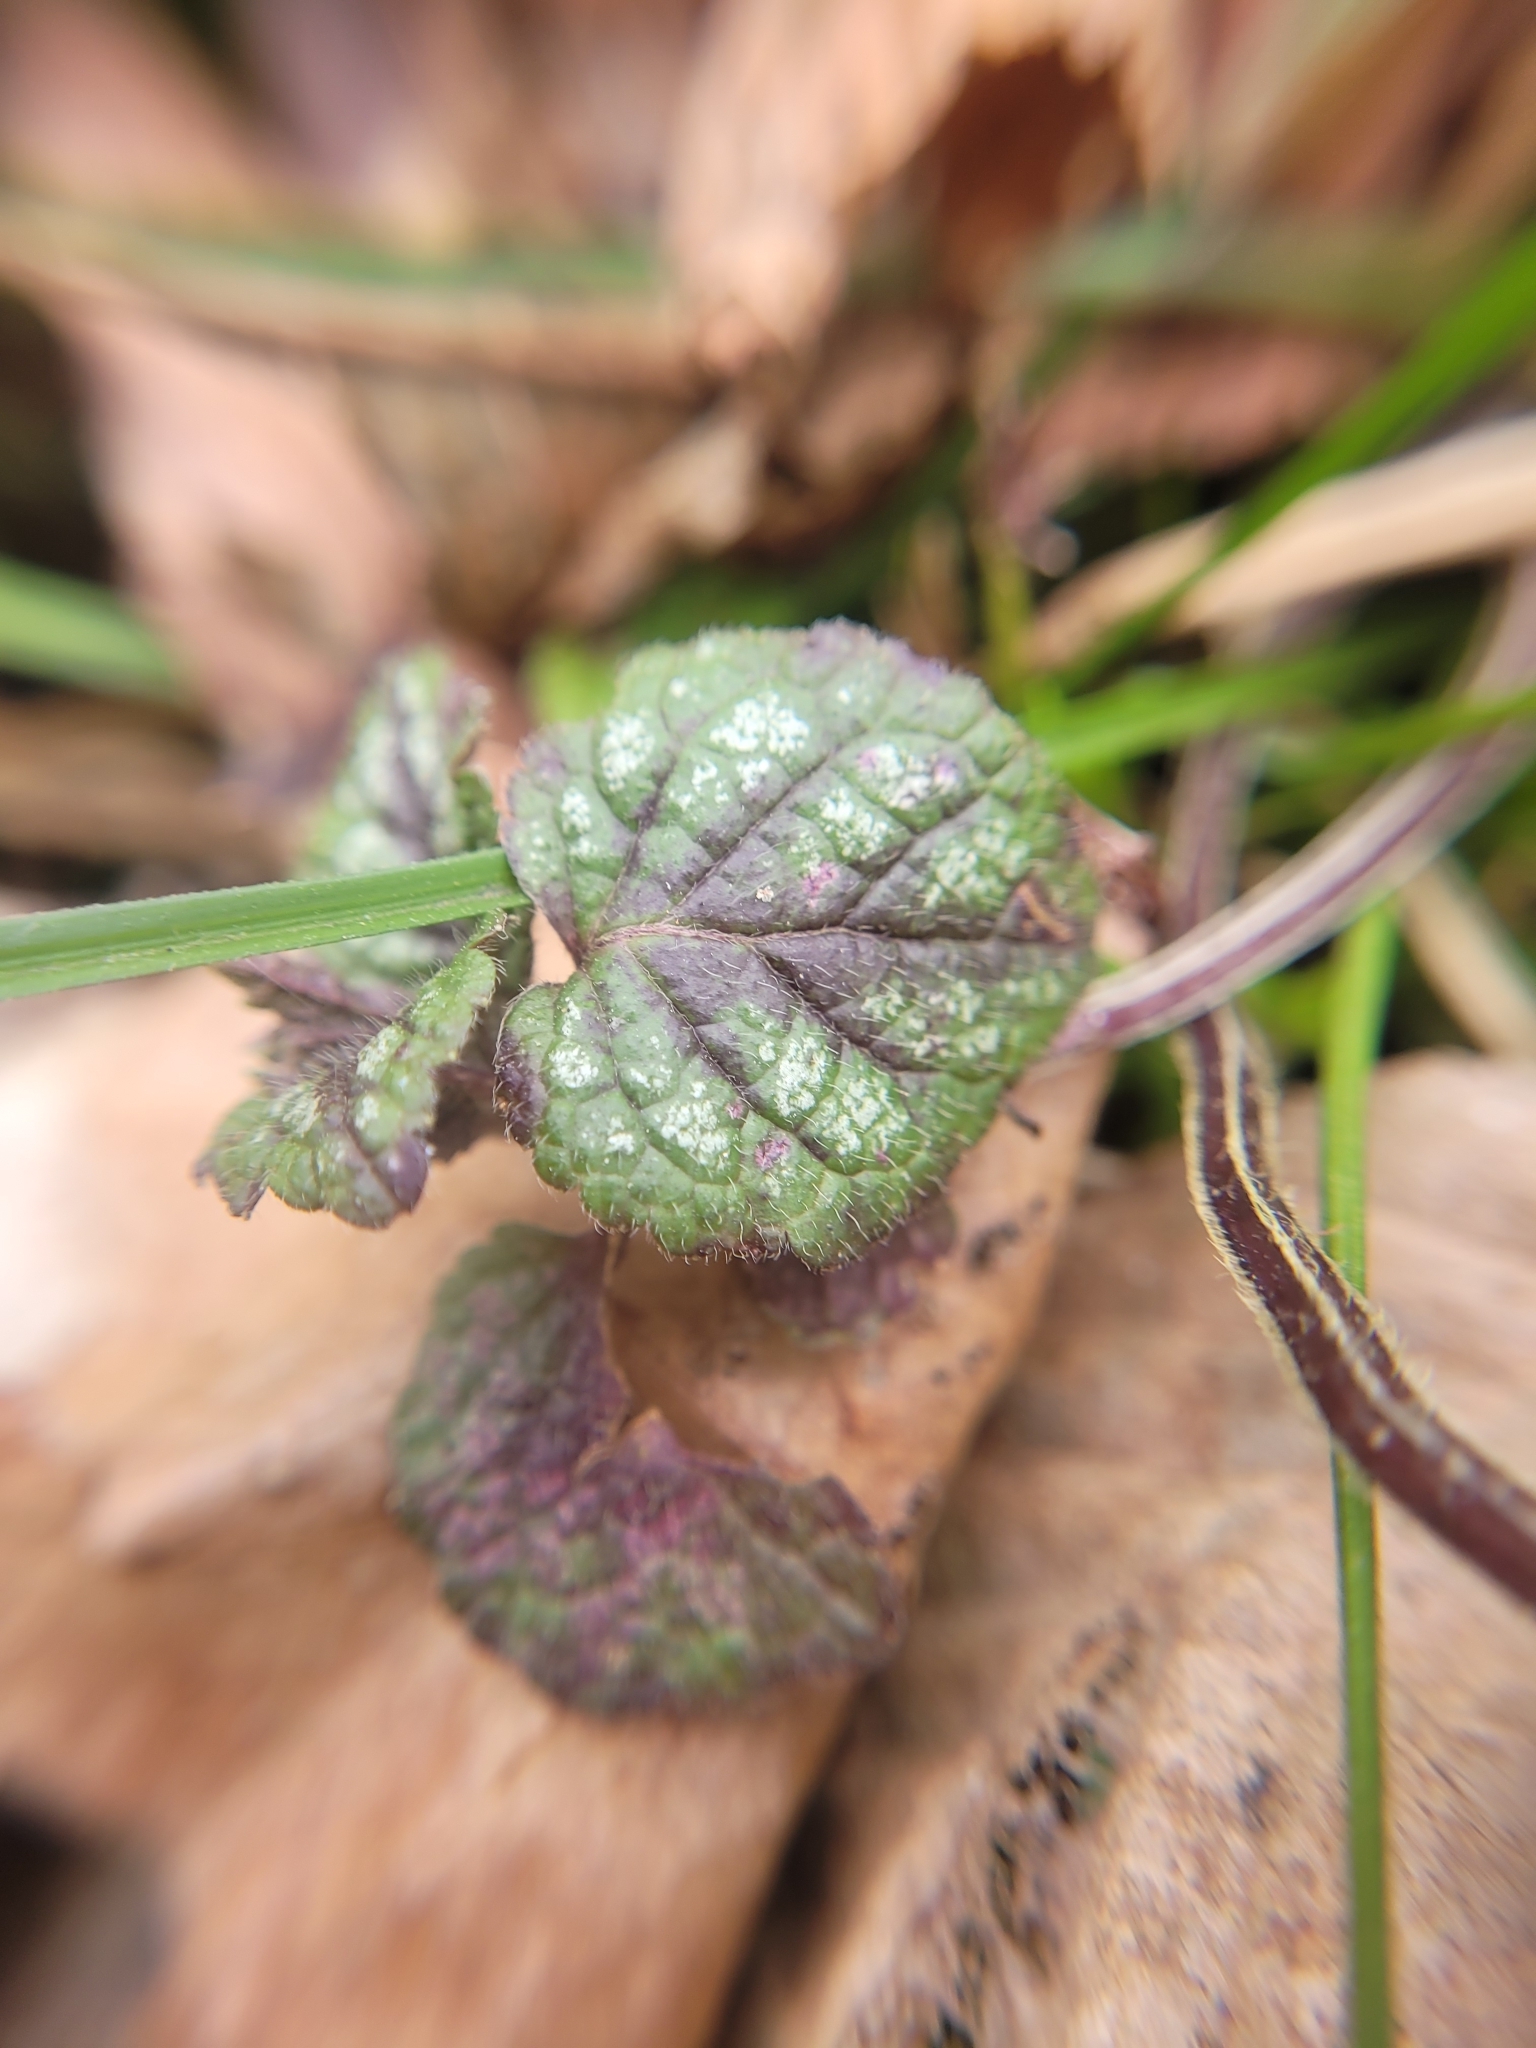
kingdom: Plantae
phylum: Tracheophyta
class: Magnoliopsida
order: Lamiales
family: Lamiaceae
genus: Lamium
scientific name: Lamium galeobdolon
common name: Yellow archangel
